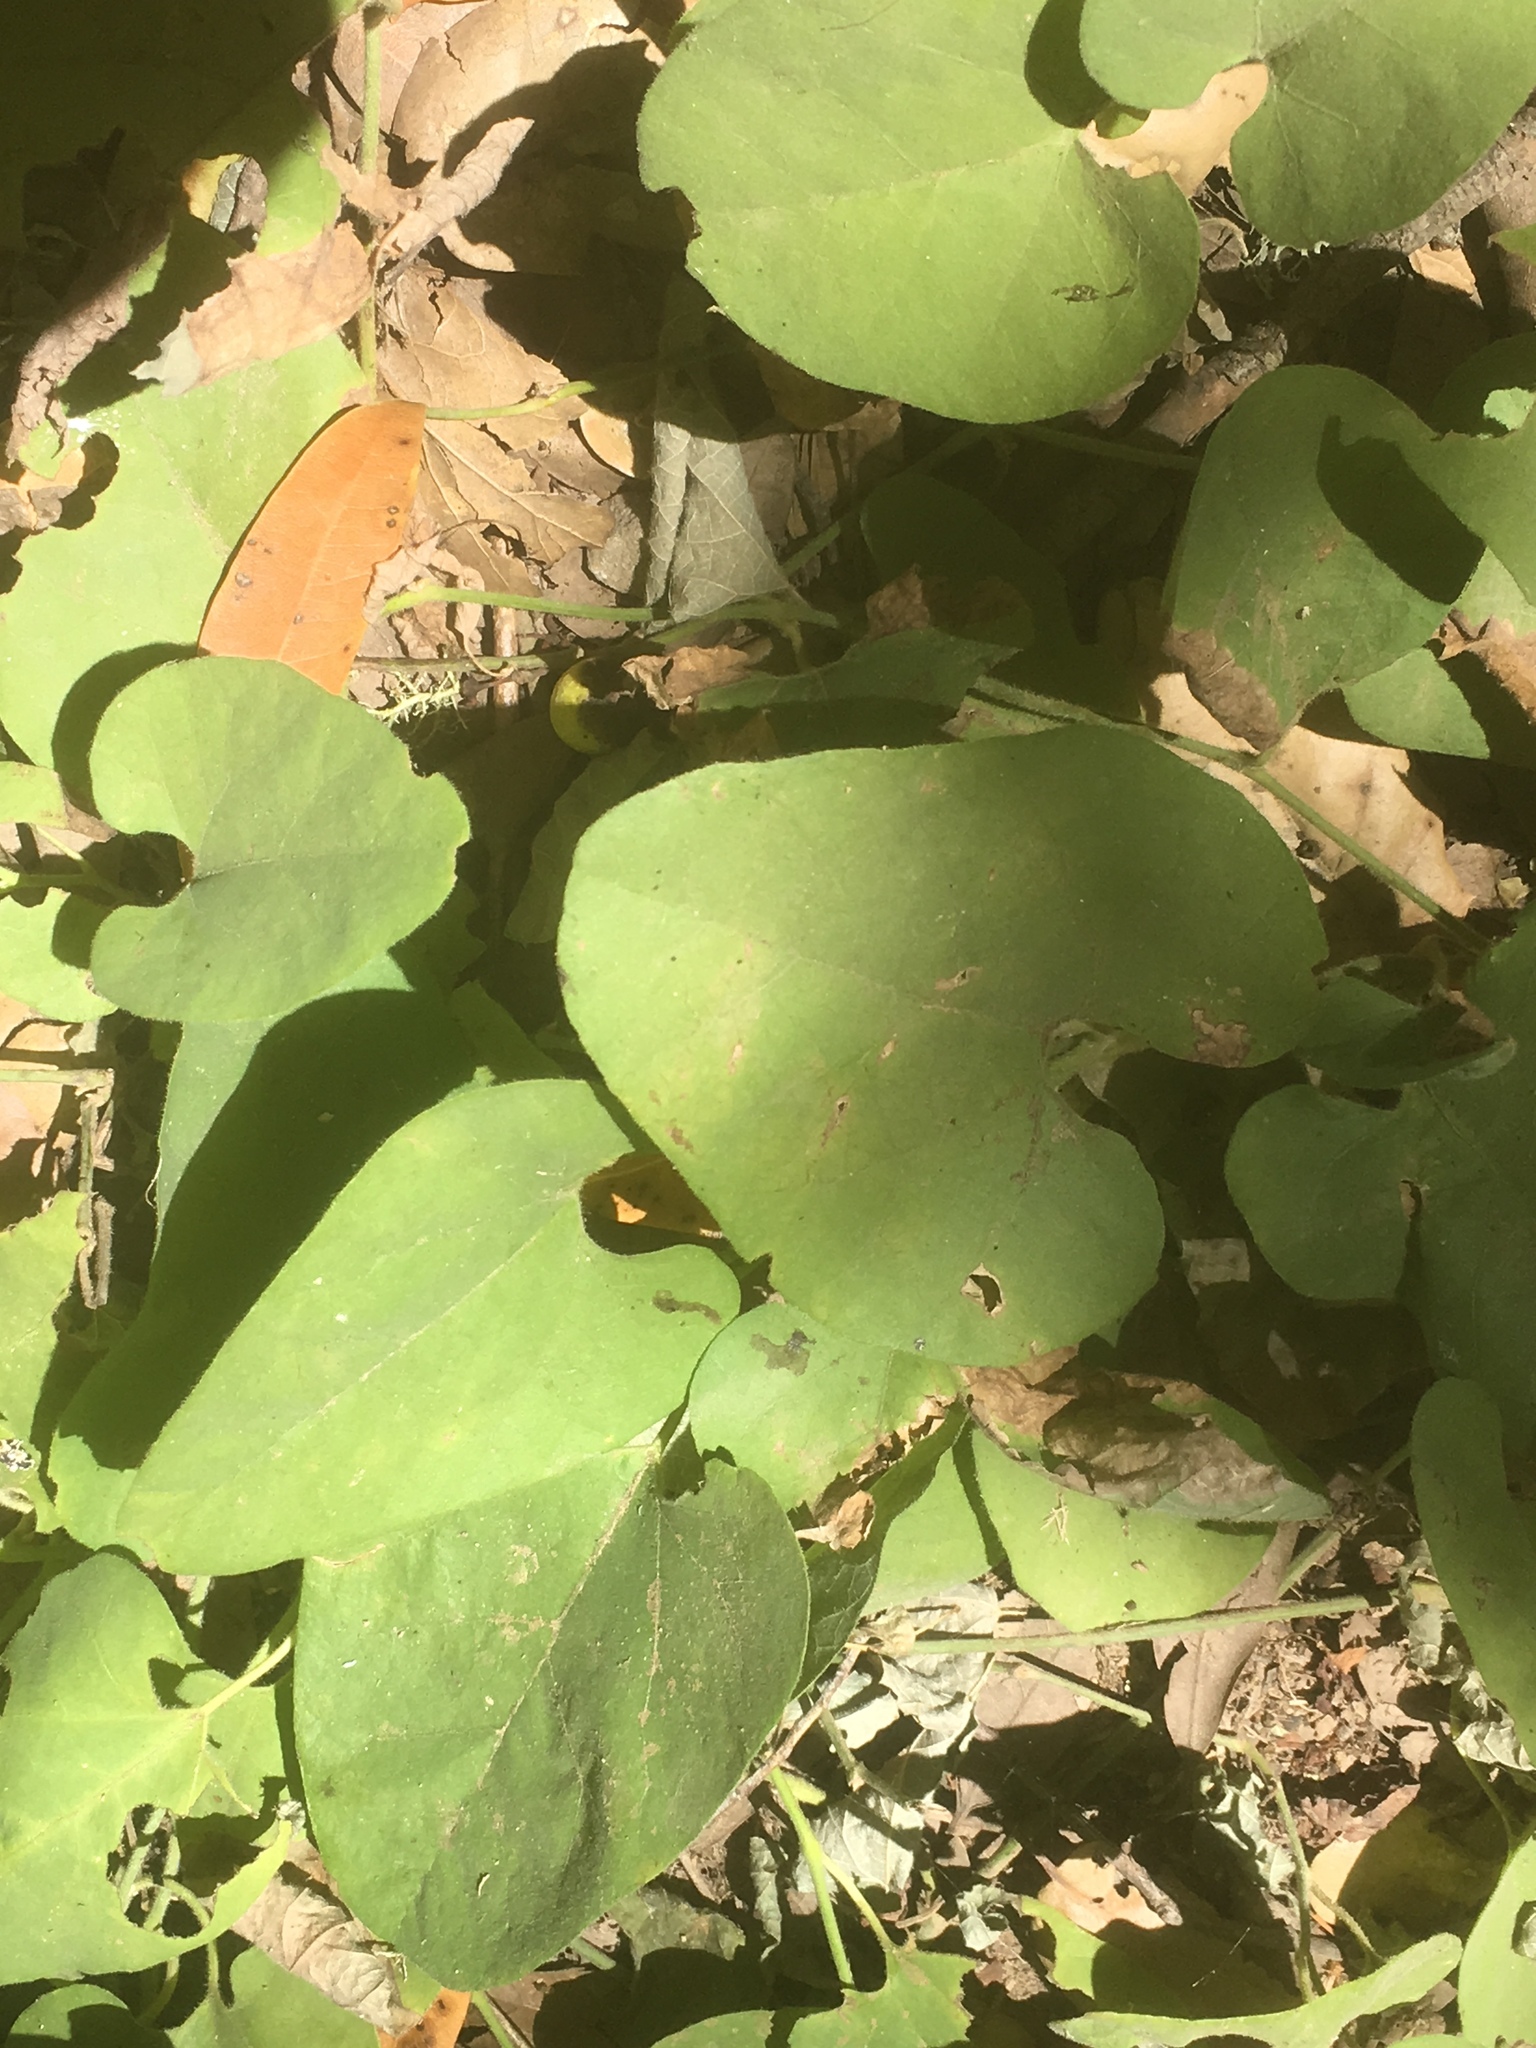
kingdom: Plantae
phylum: Tracheophyta
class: Magnoliopsida
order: Piperales
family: Aristolochiaceae
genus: Isotrema
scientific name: Isotrema californicum
